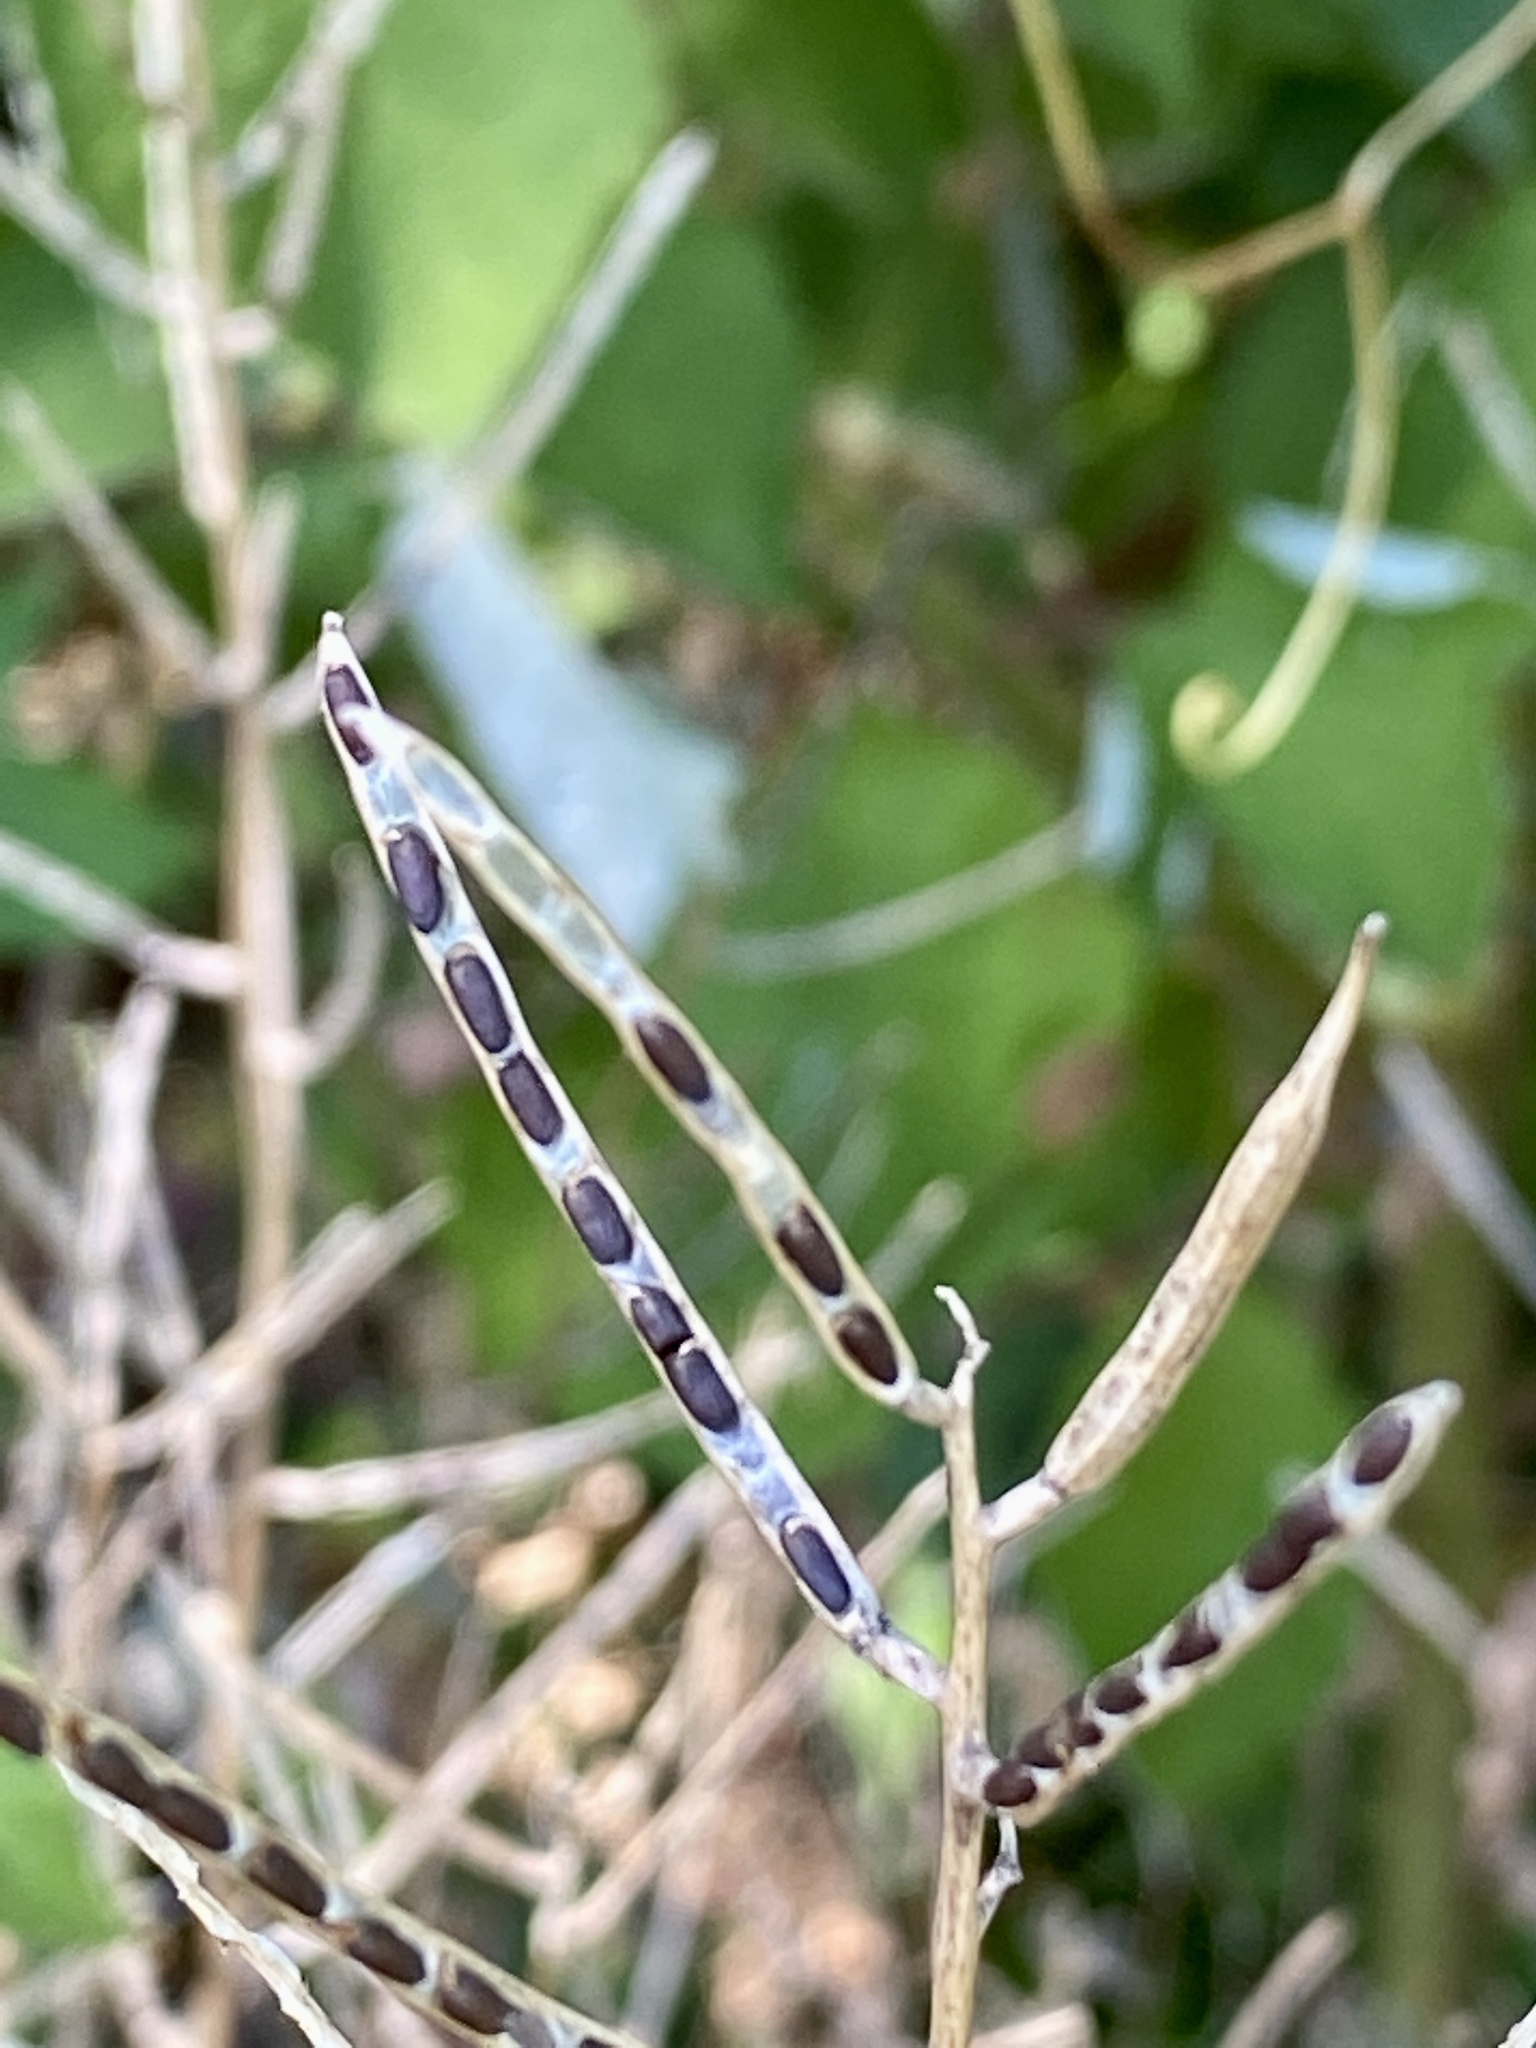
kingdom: Plantae
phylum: Tracheophyta
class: Magnoliopsida
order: Brassicales
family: Brassicaceae
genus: Alliaria
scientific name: Alliaria petiolata
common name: Garlic mustard
